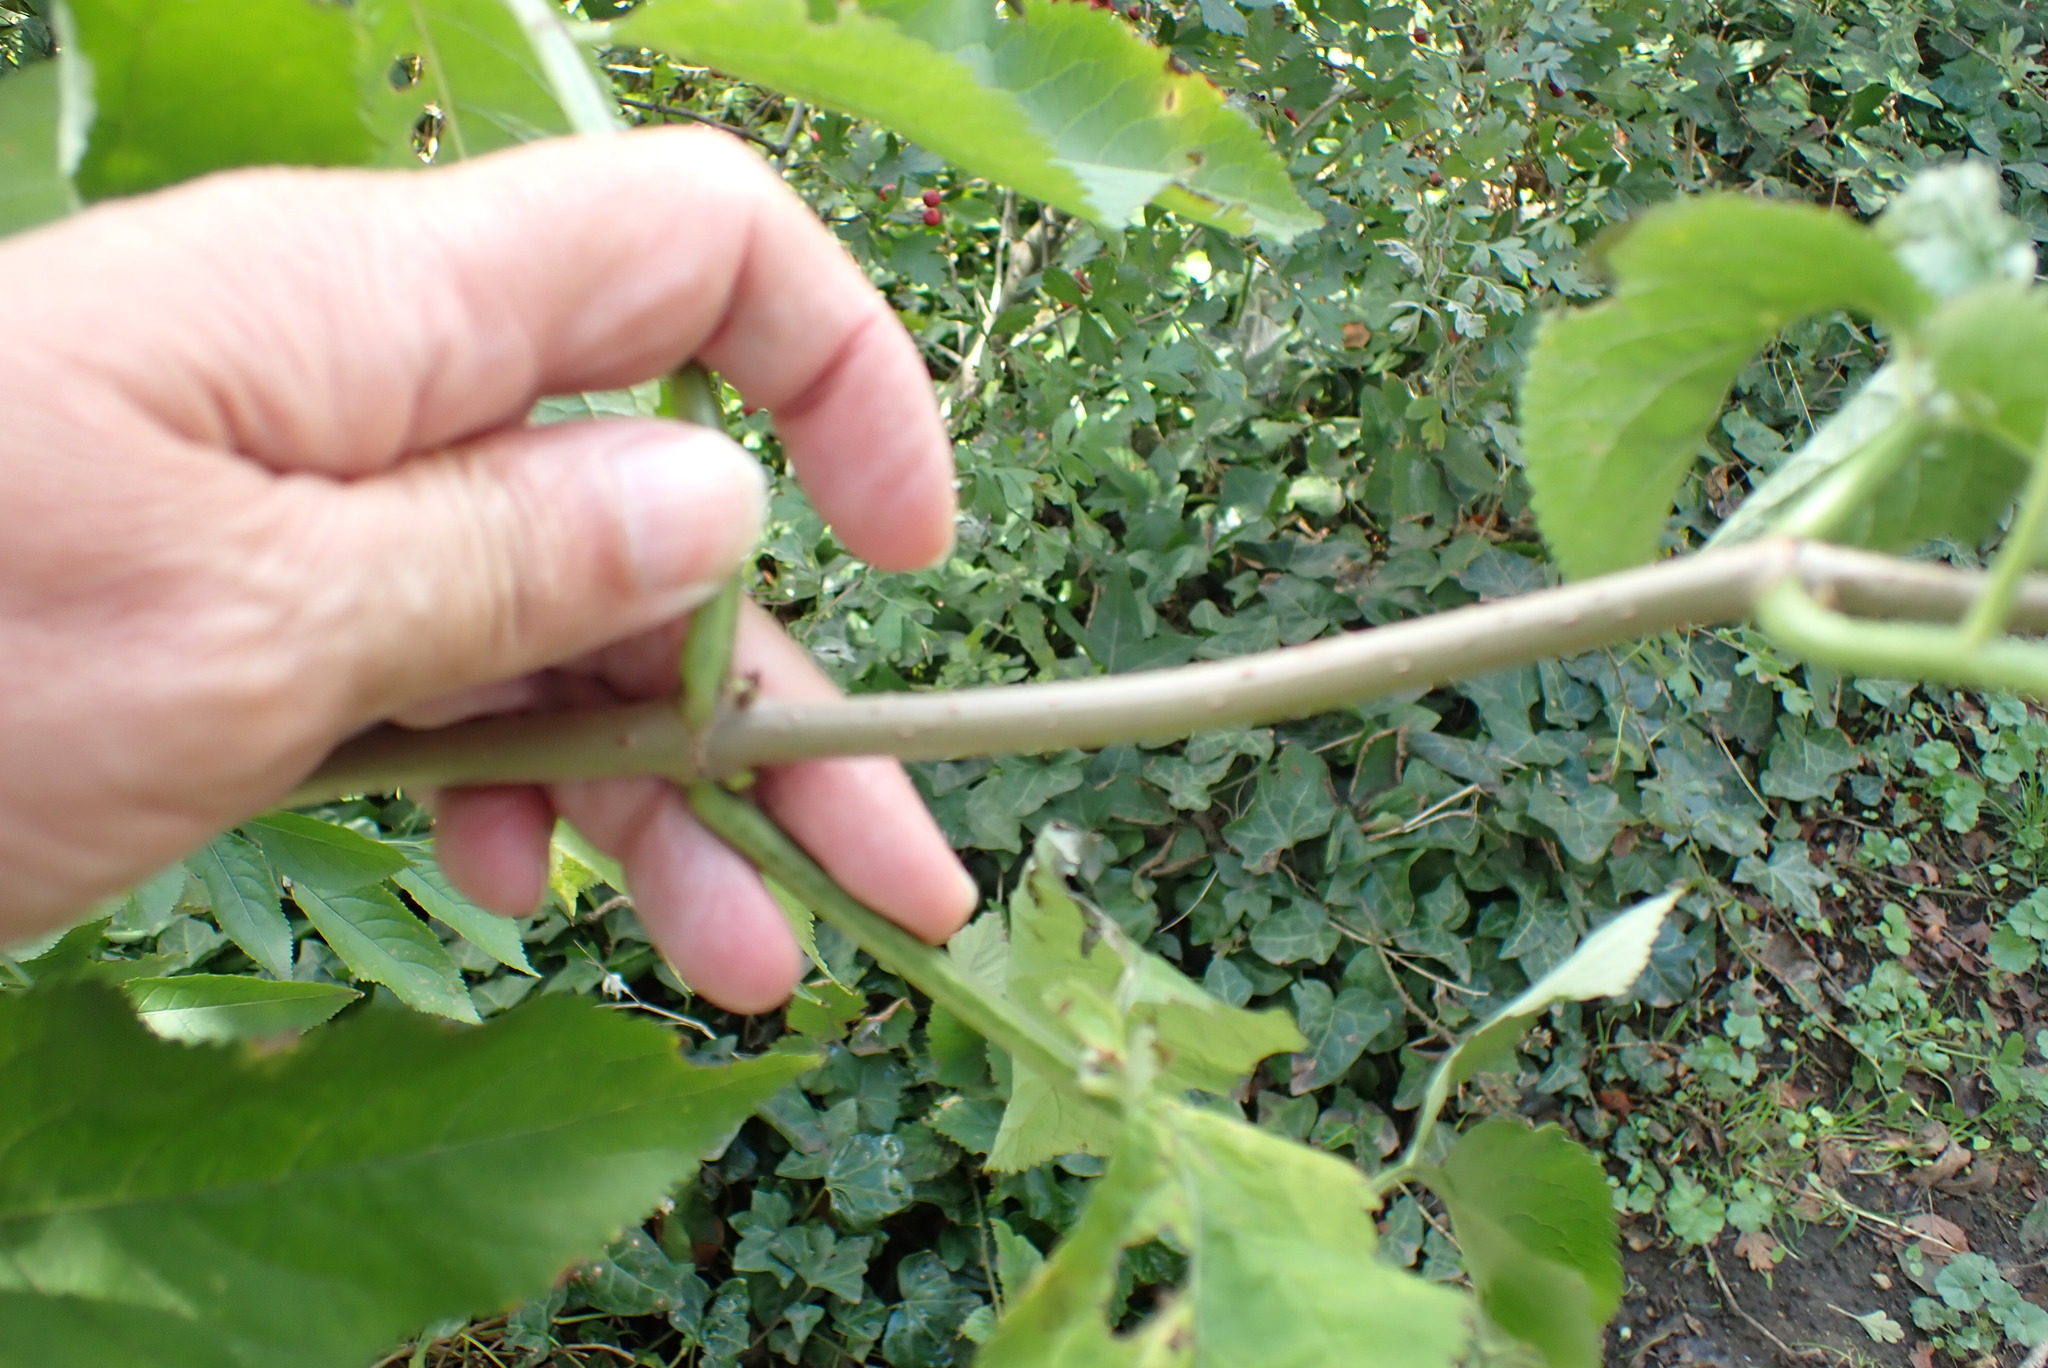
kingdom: Plantae
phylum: Tracheophyta
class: Magnoliopsida
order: Dipsacales
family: Viburnaceae
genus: Sambucus
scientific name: Sambucus nigra
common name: Elder
